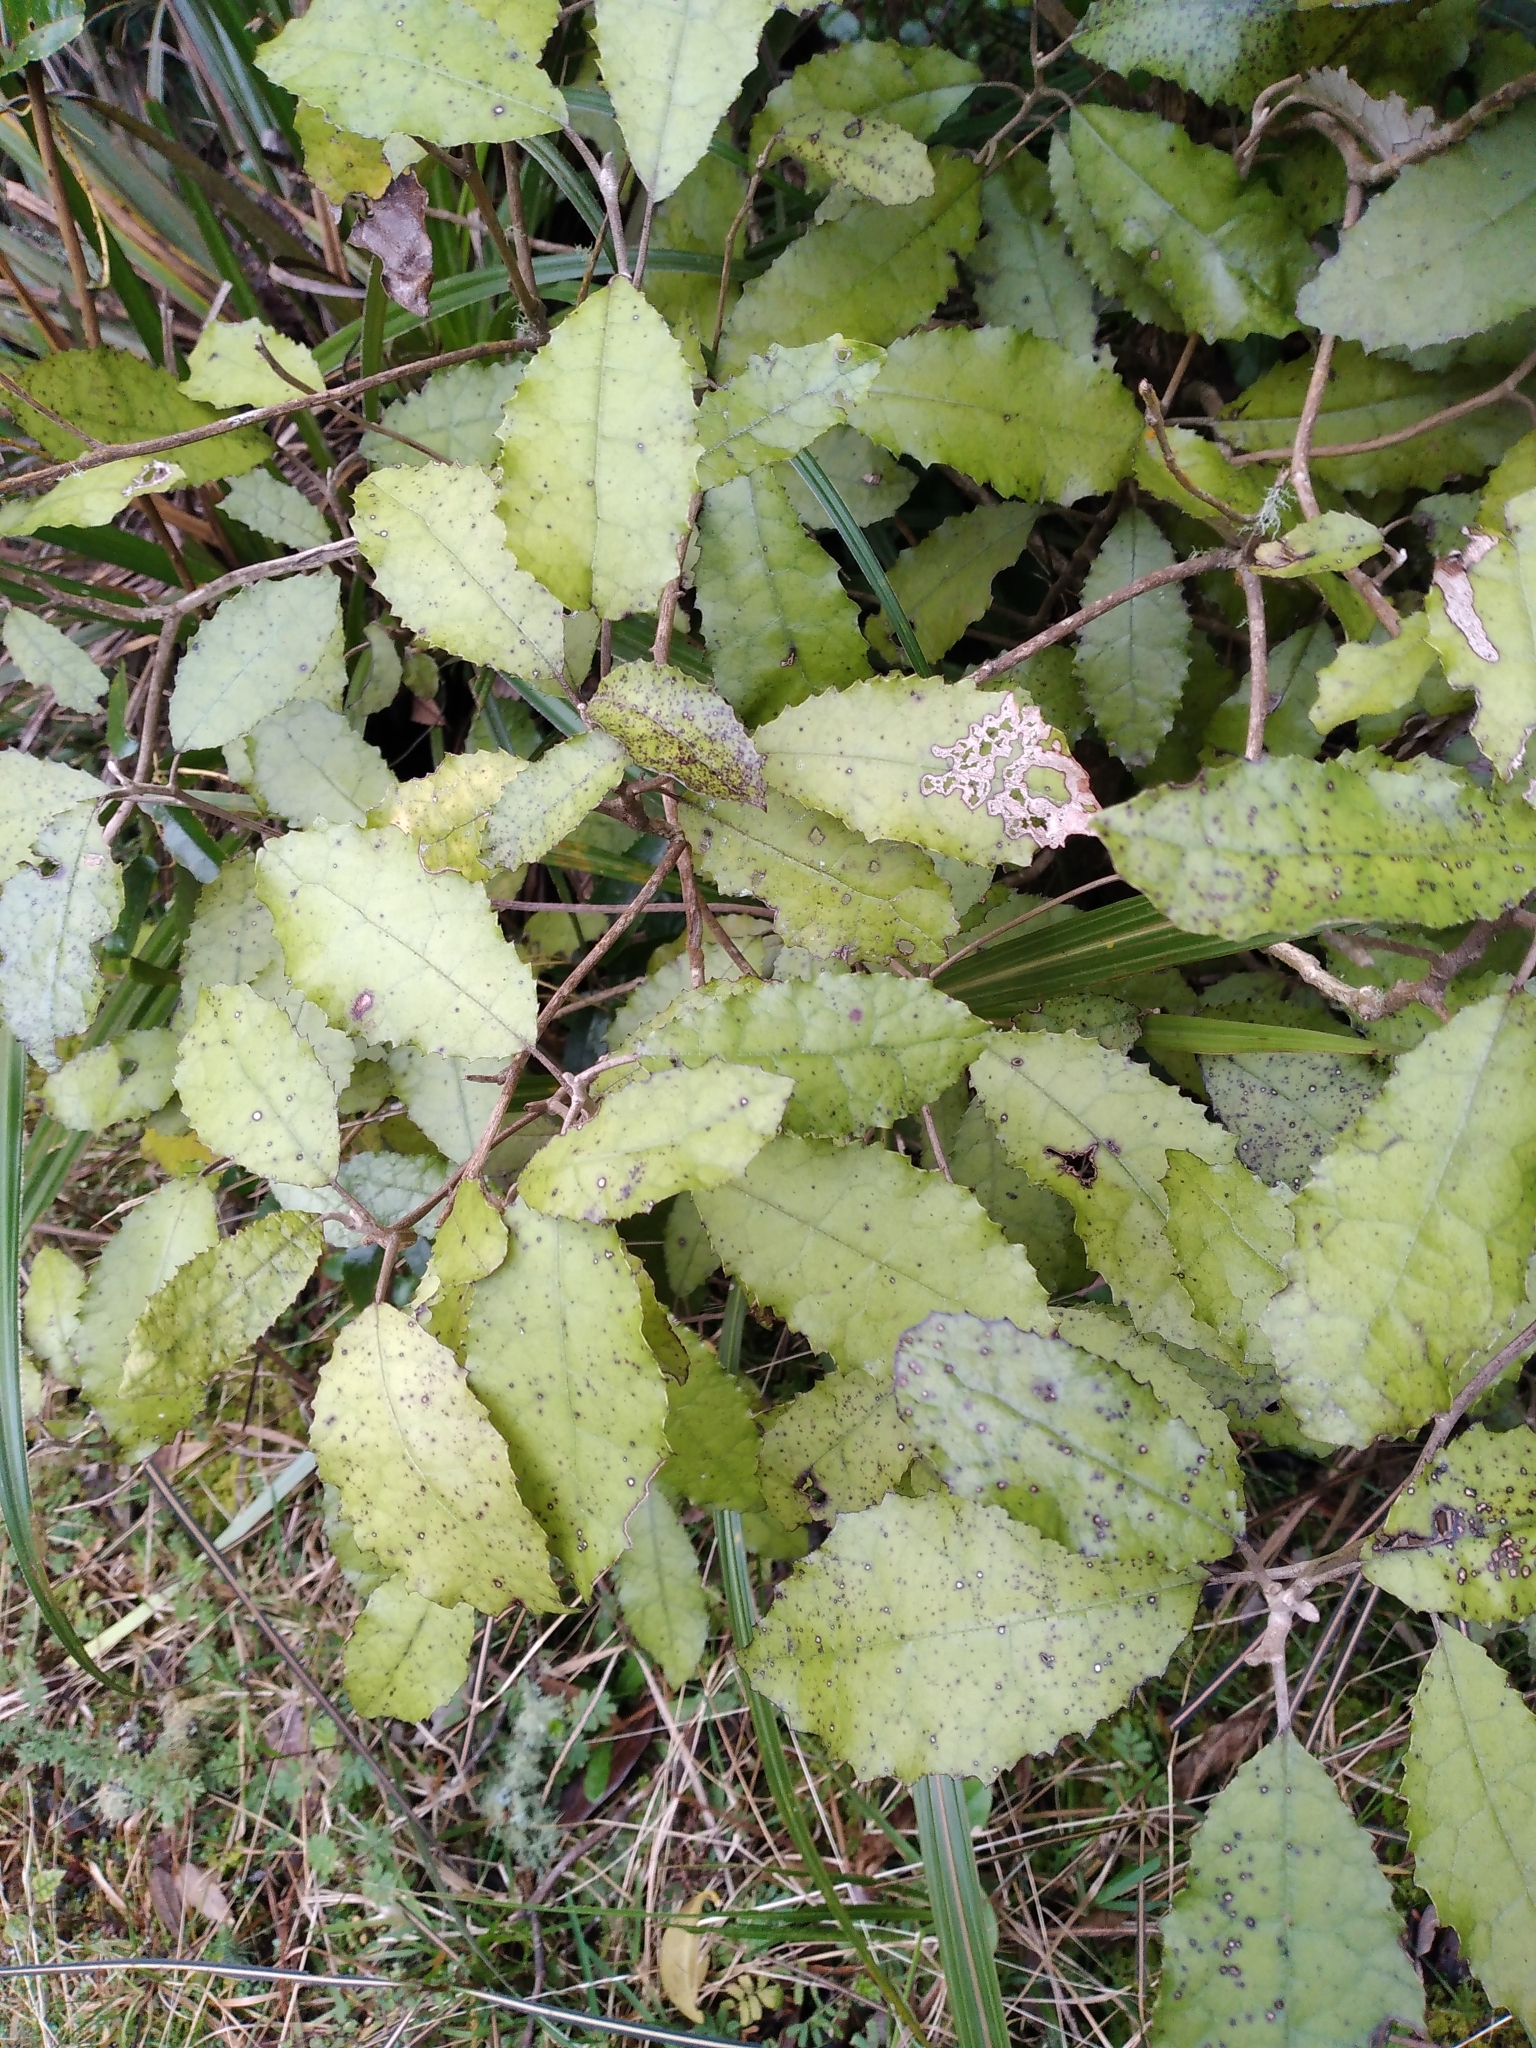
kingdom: Plantae
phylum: Tracheophyta
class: Magnoliopsida
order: Asterales
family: Asteraceae
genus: Olearia
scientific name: Olearia rani
